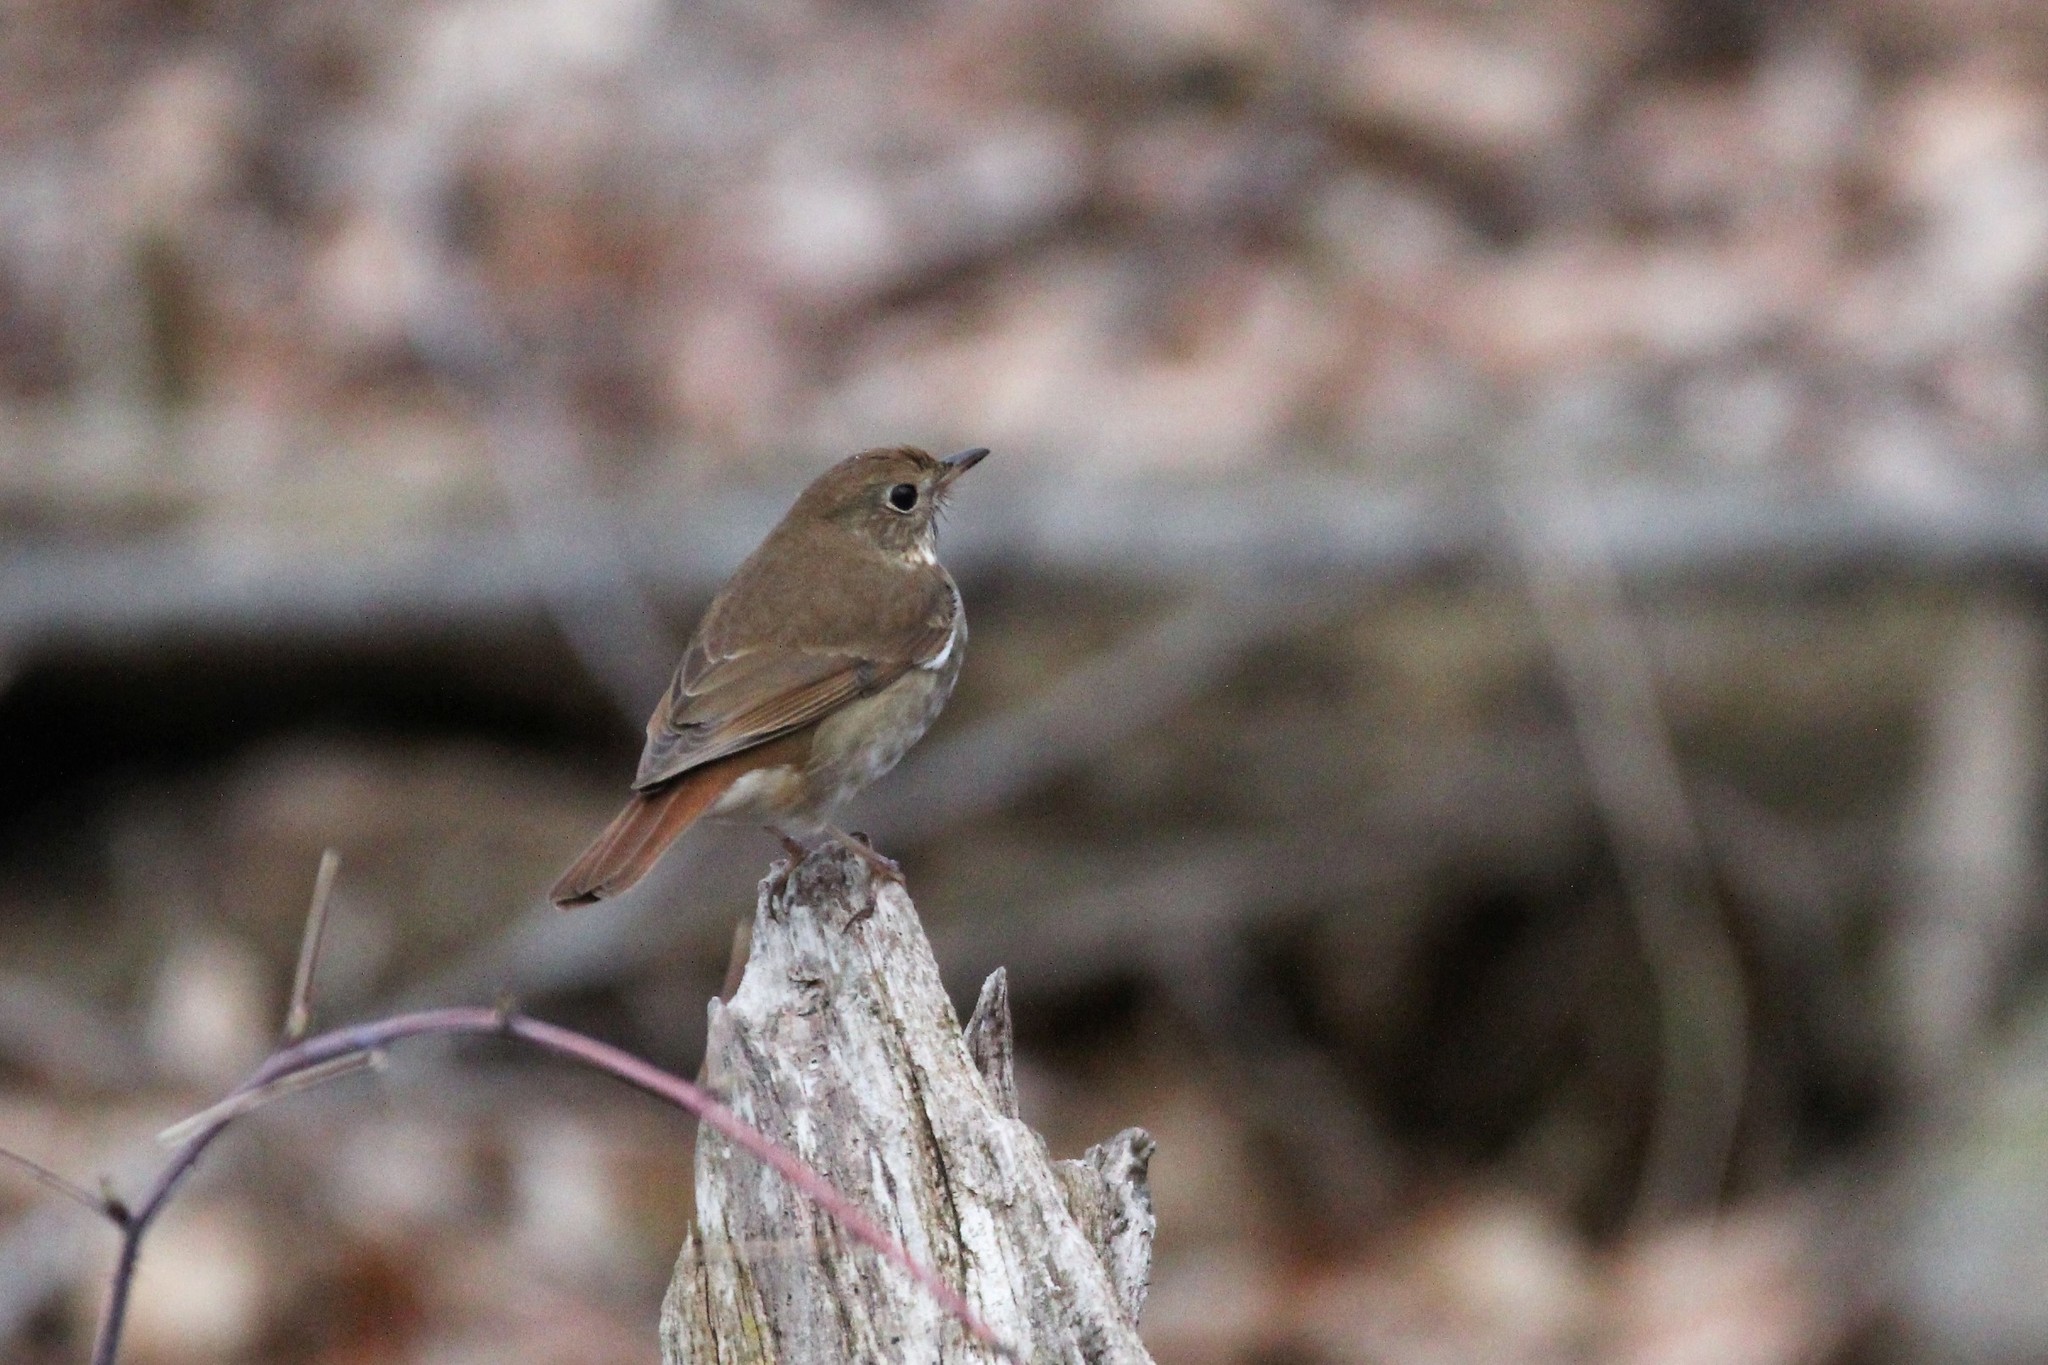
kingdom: Animalia
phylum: Chordata
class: Aves
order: Passeriformes
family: Turdidae
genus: Catharus
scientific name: Catharus guttatus
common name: Hermit thrush
